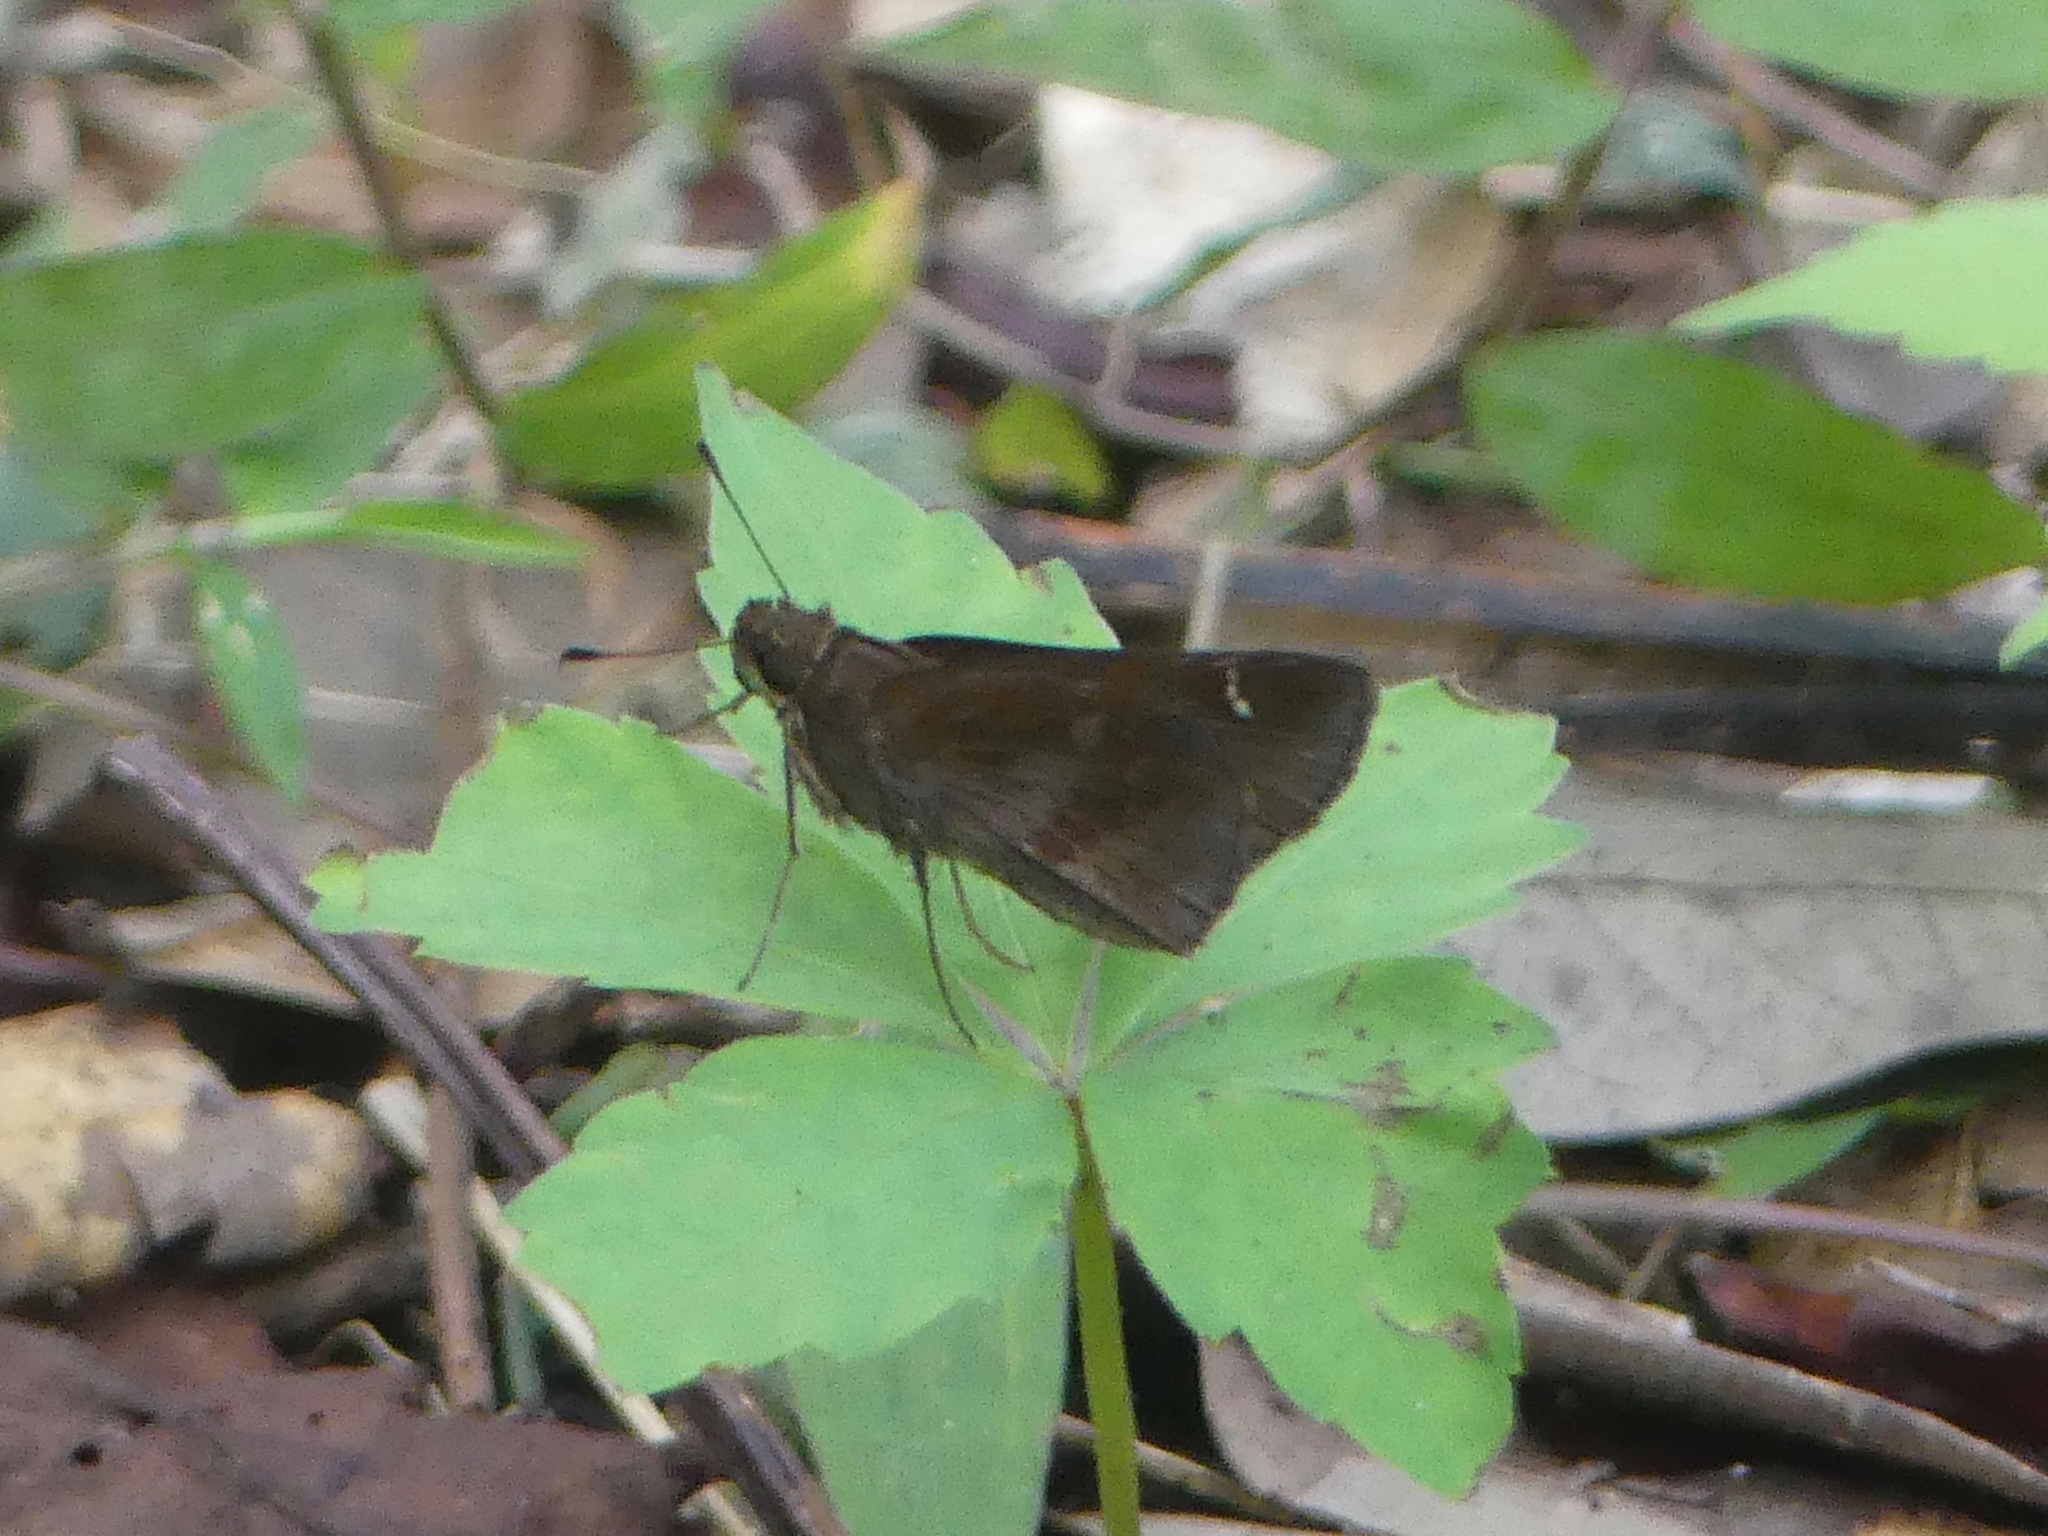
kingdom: Animalia
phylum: Arthropoda
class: Insecta
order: Lepidoptera
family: Hesperiidae
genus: Lerema
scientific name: Lerema accius
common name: Clouded skipper
